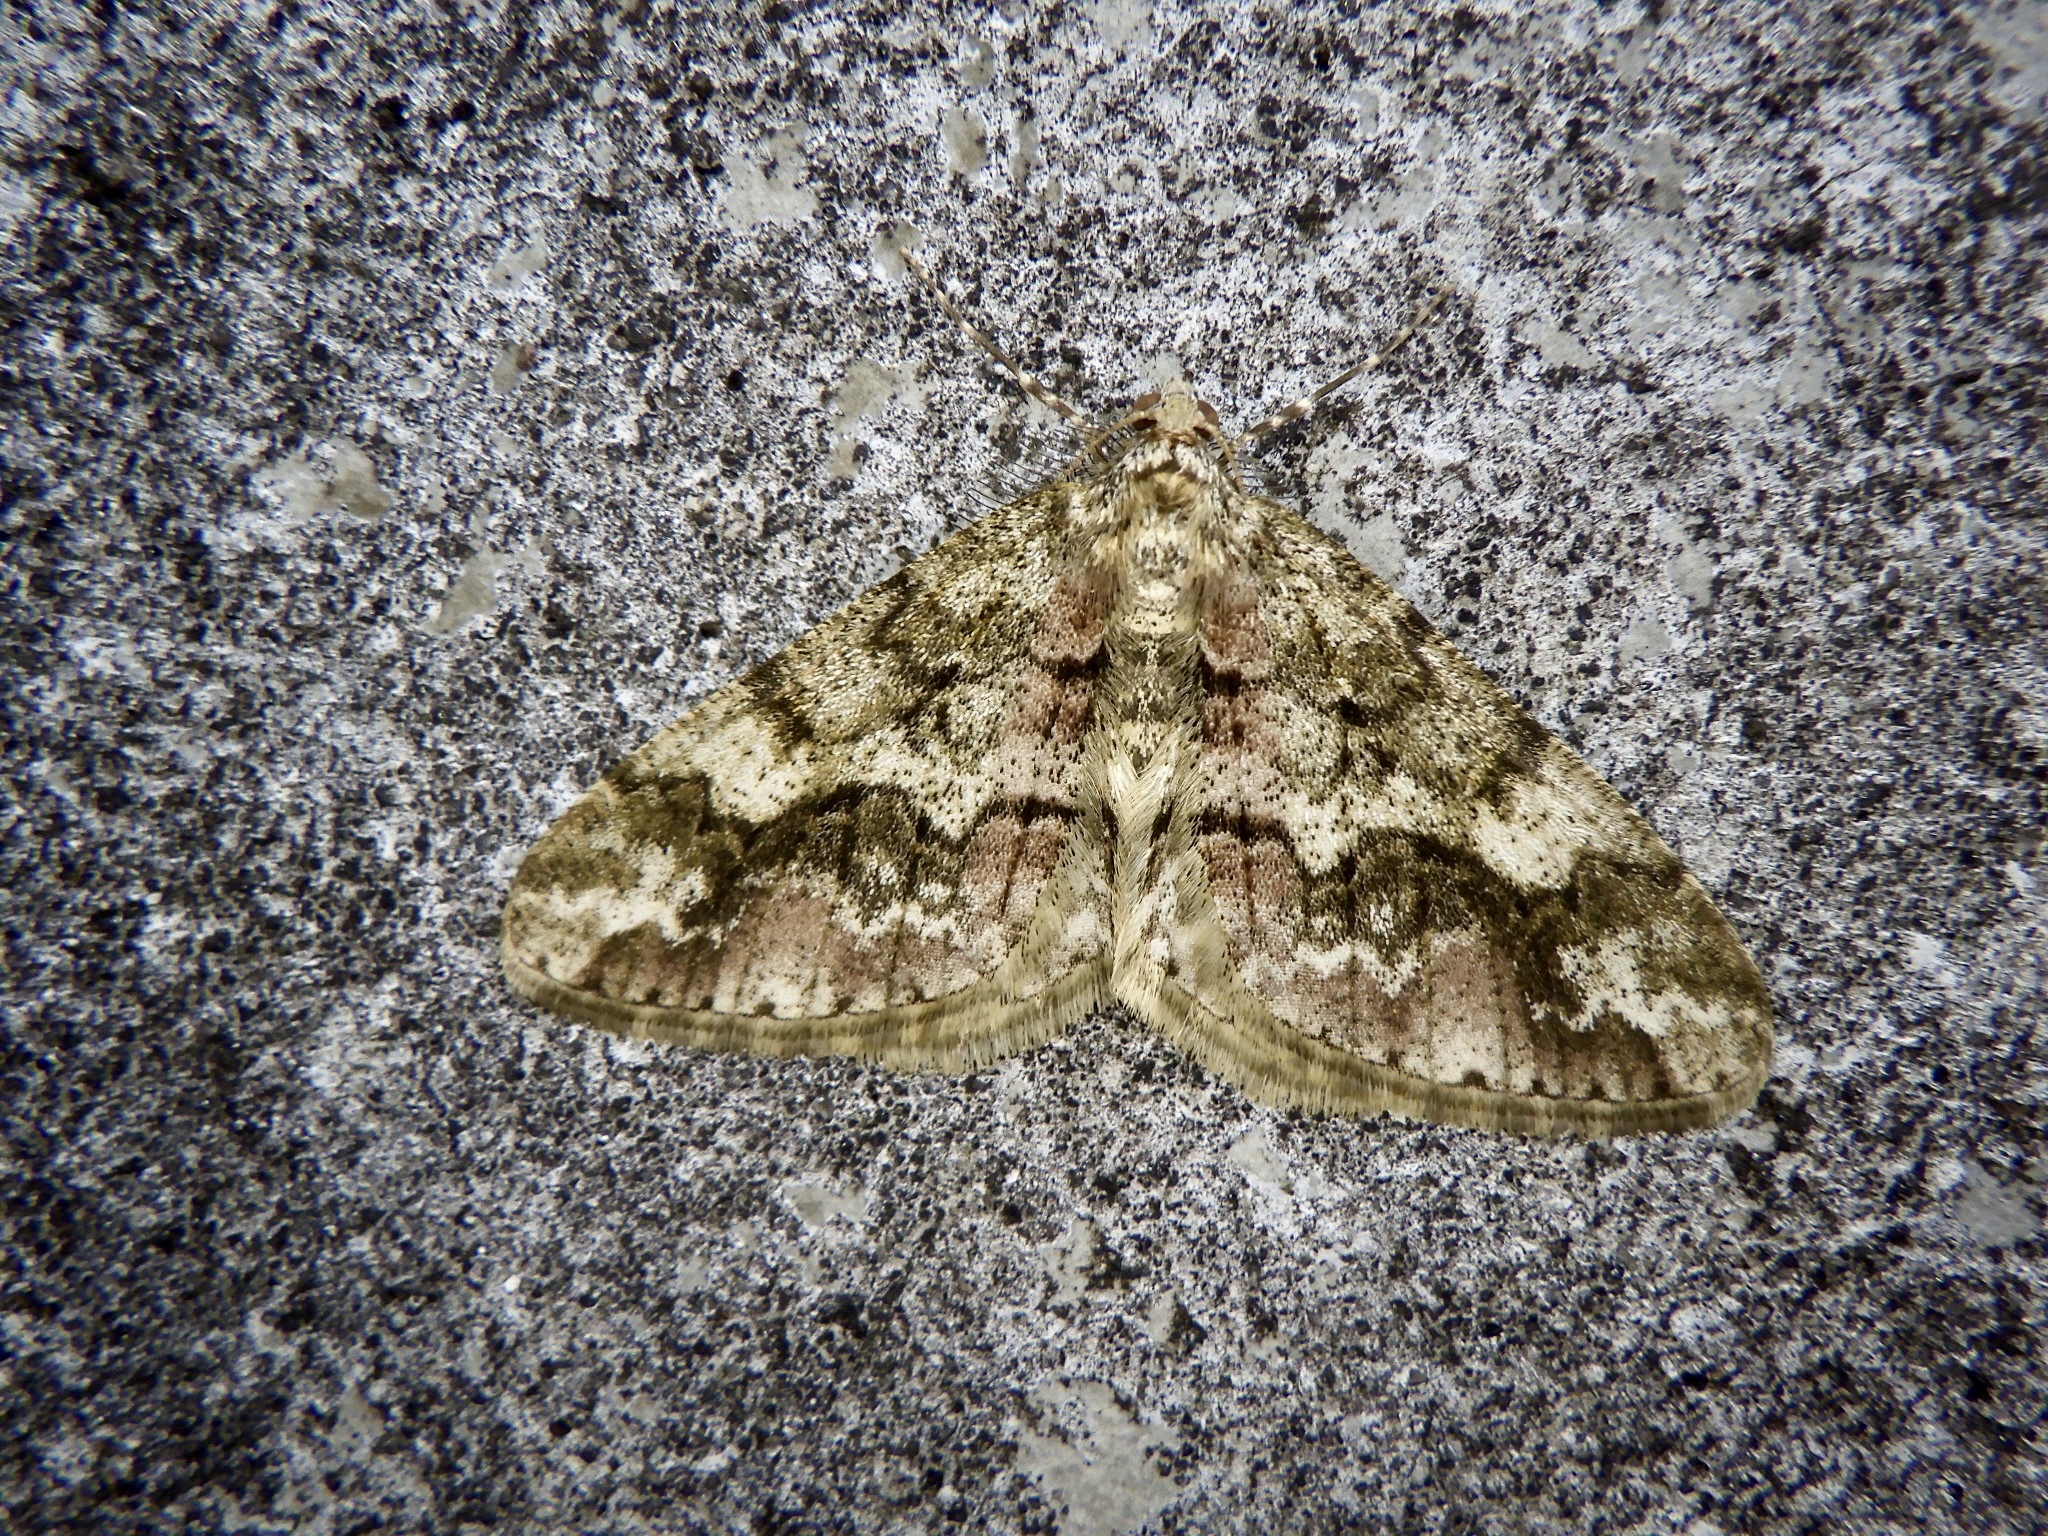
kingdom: Animalia
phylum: Arthropoda
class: Insecta
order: Lepidoptera
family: Geometridae
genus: Pseuderannis
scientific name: Pseuderannis amplipennis
